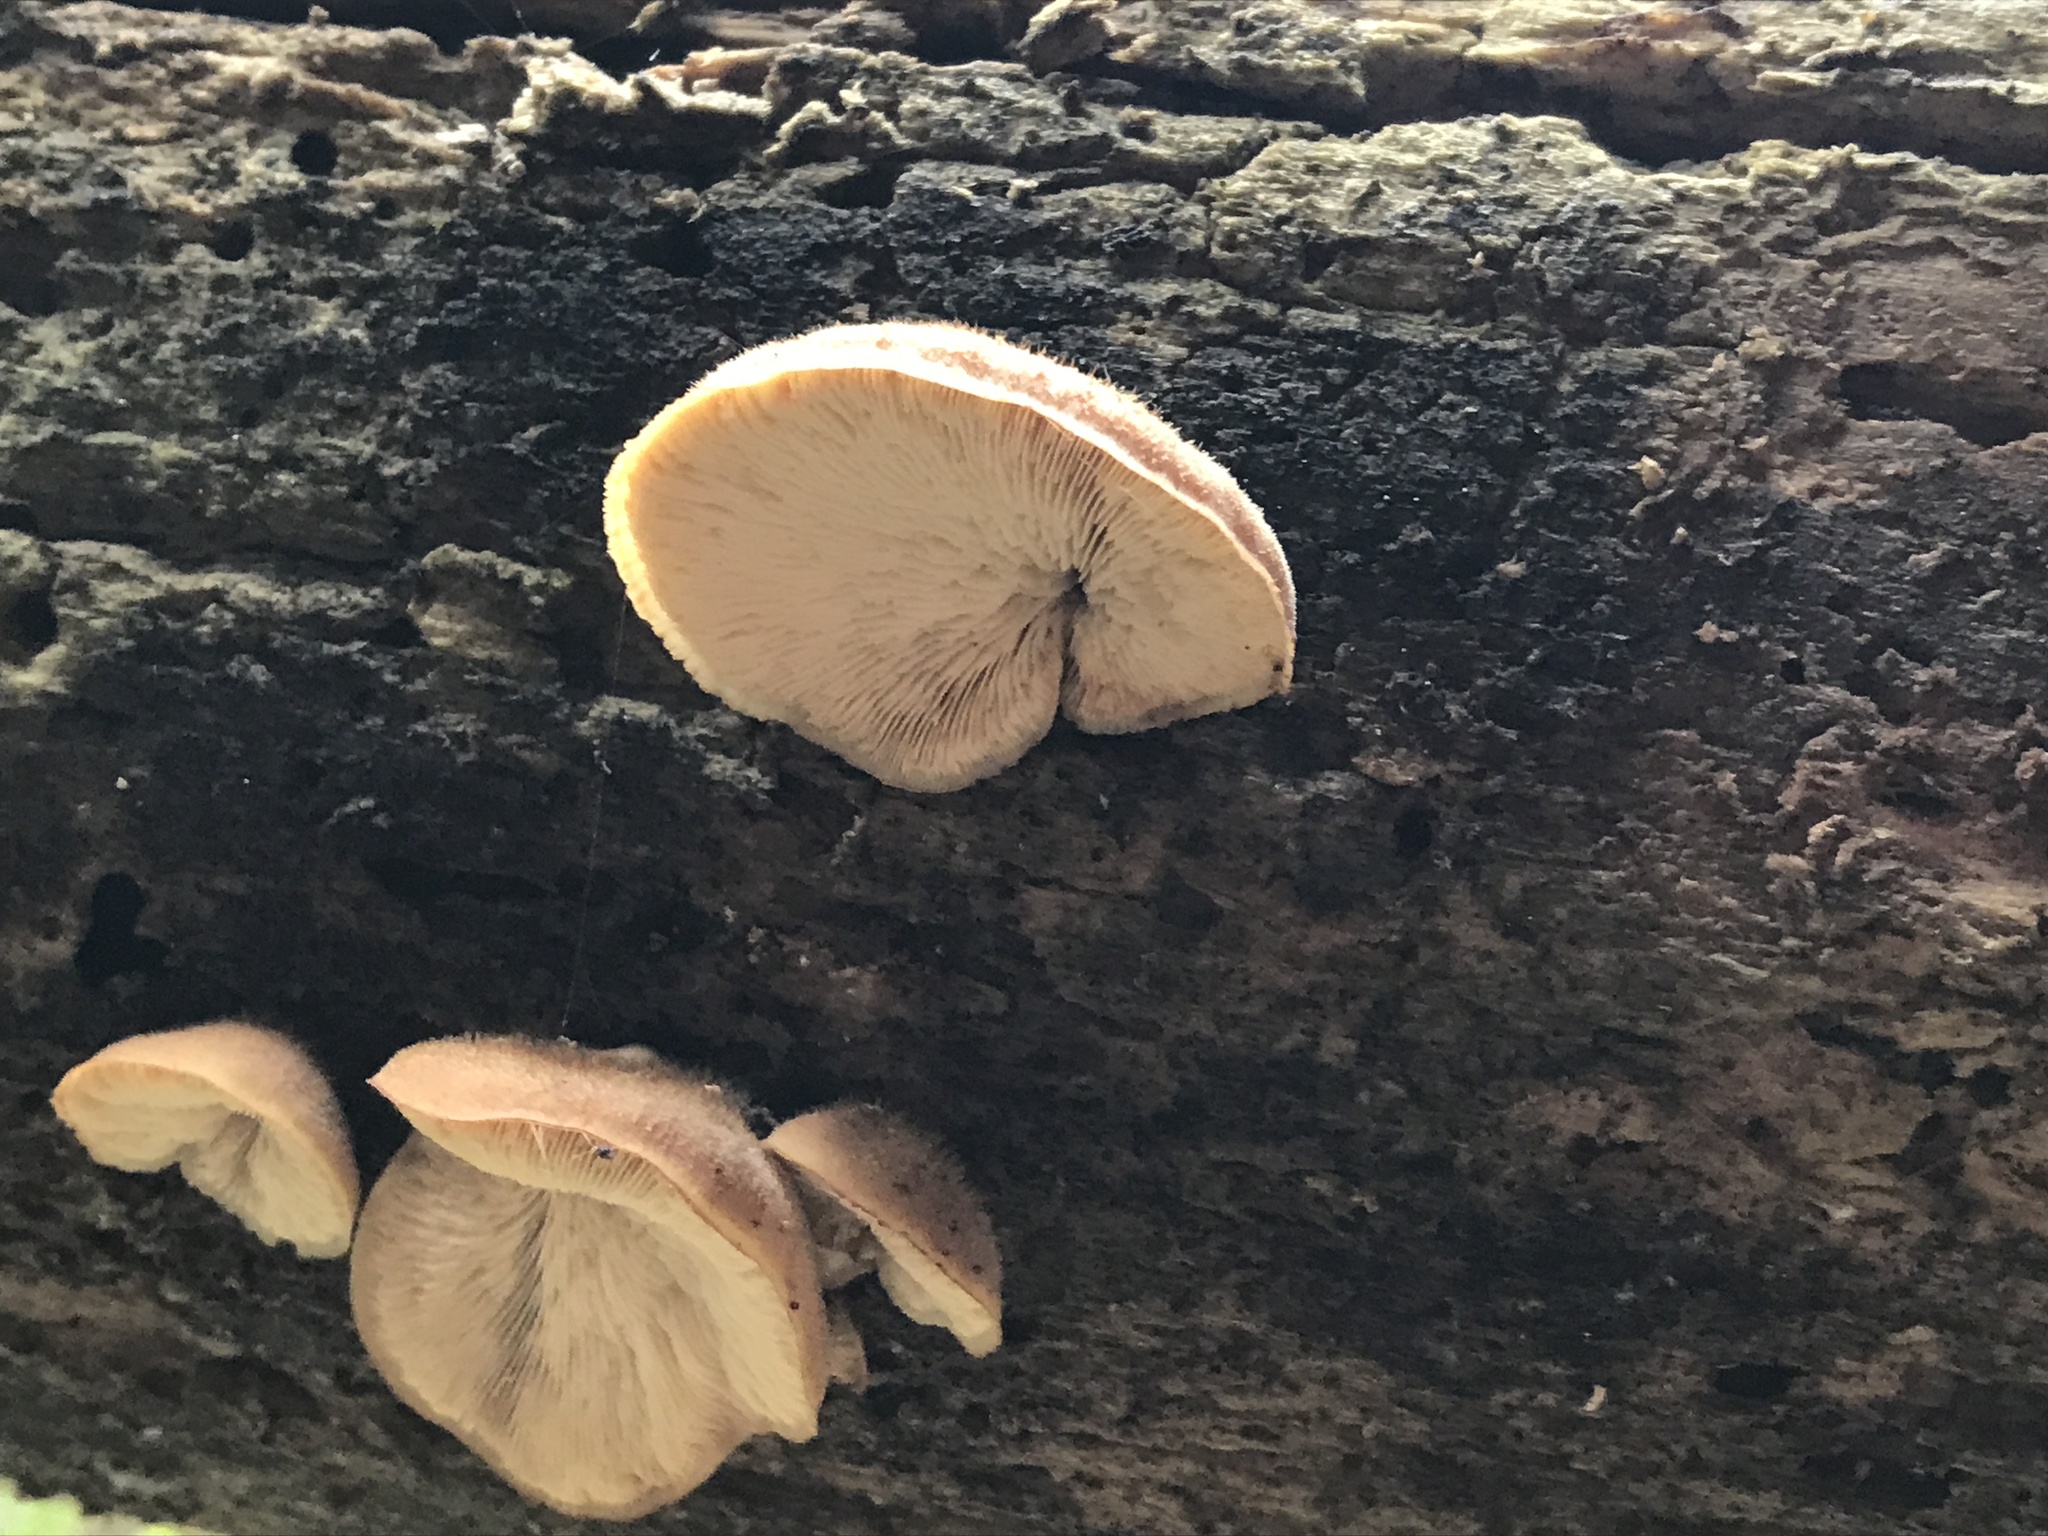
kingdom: Fungi
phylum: Basidiomycota
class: Agaricomycetes
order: Russulales
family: Auriscalpiaceae
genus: Lentinellus
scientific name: Lentinellus ursinus
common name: Bear lentinus
